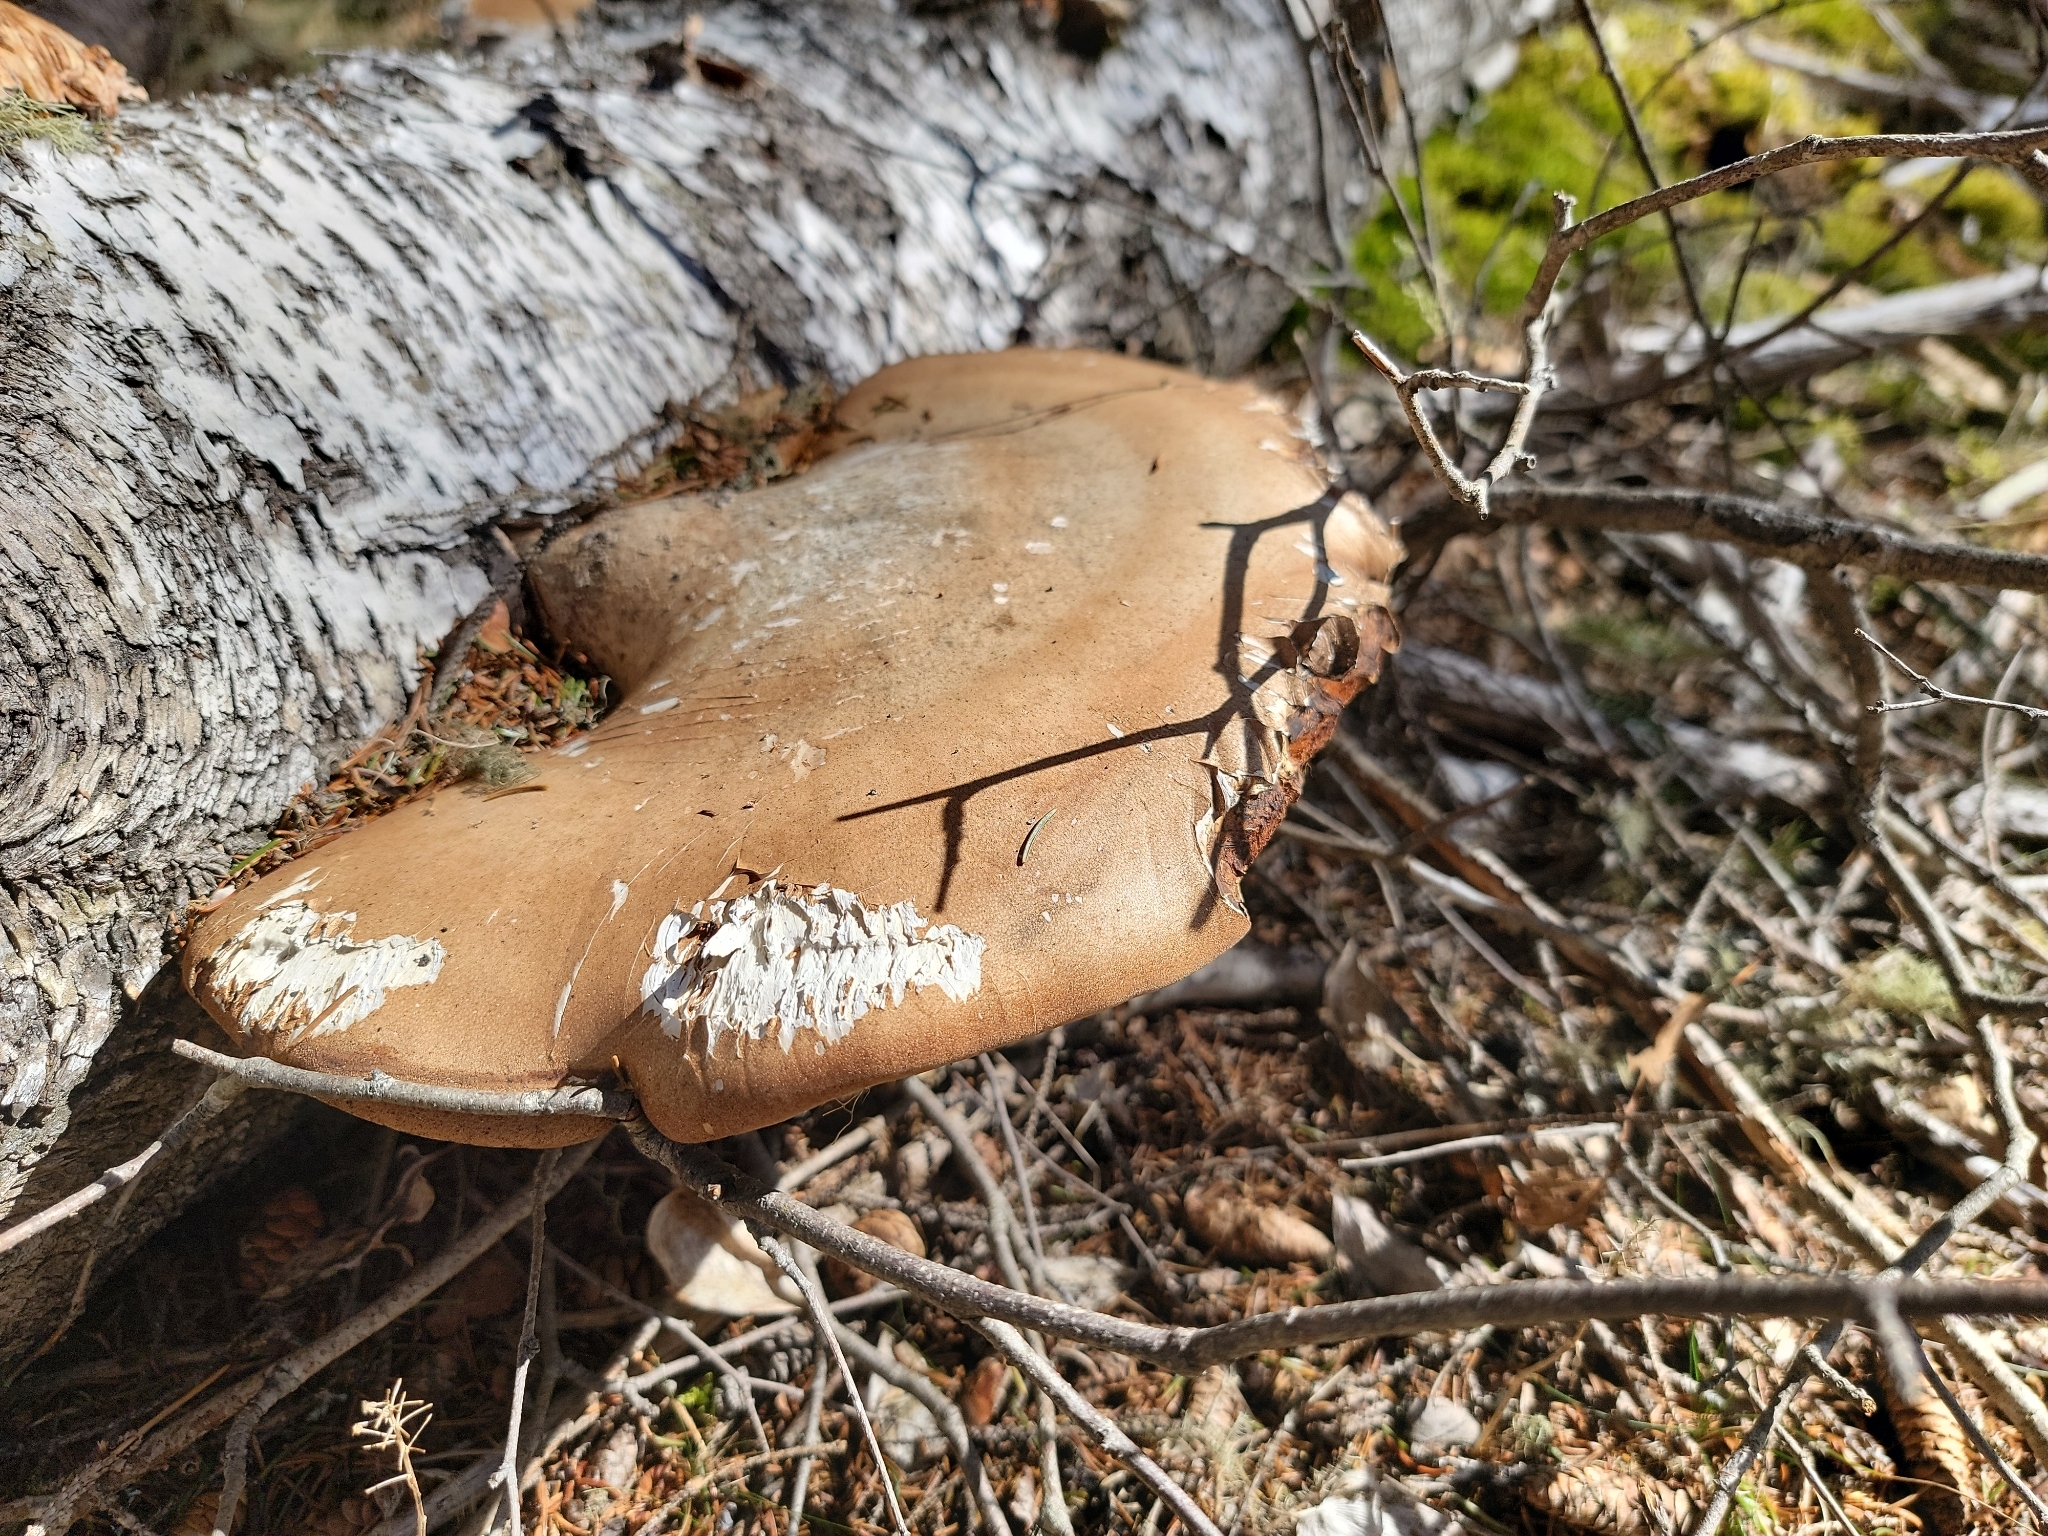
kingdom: Fungi
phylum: Basidiomycota
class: Agaricomycetes
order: Polyporales
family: Fomitopsidaceae
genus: Fomitopsis
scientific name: Fomitopsis betulina
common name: Birch polypore
